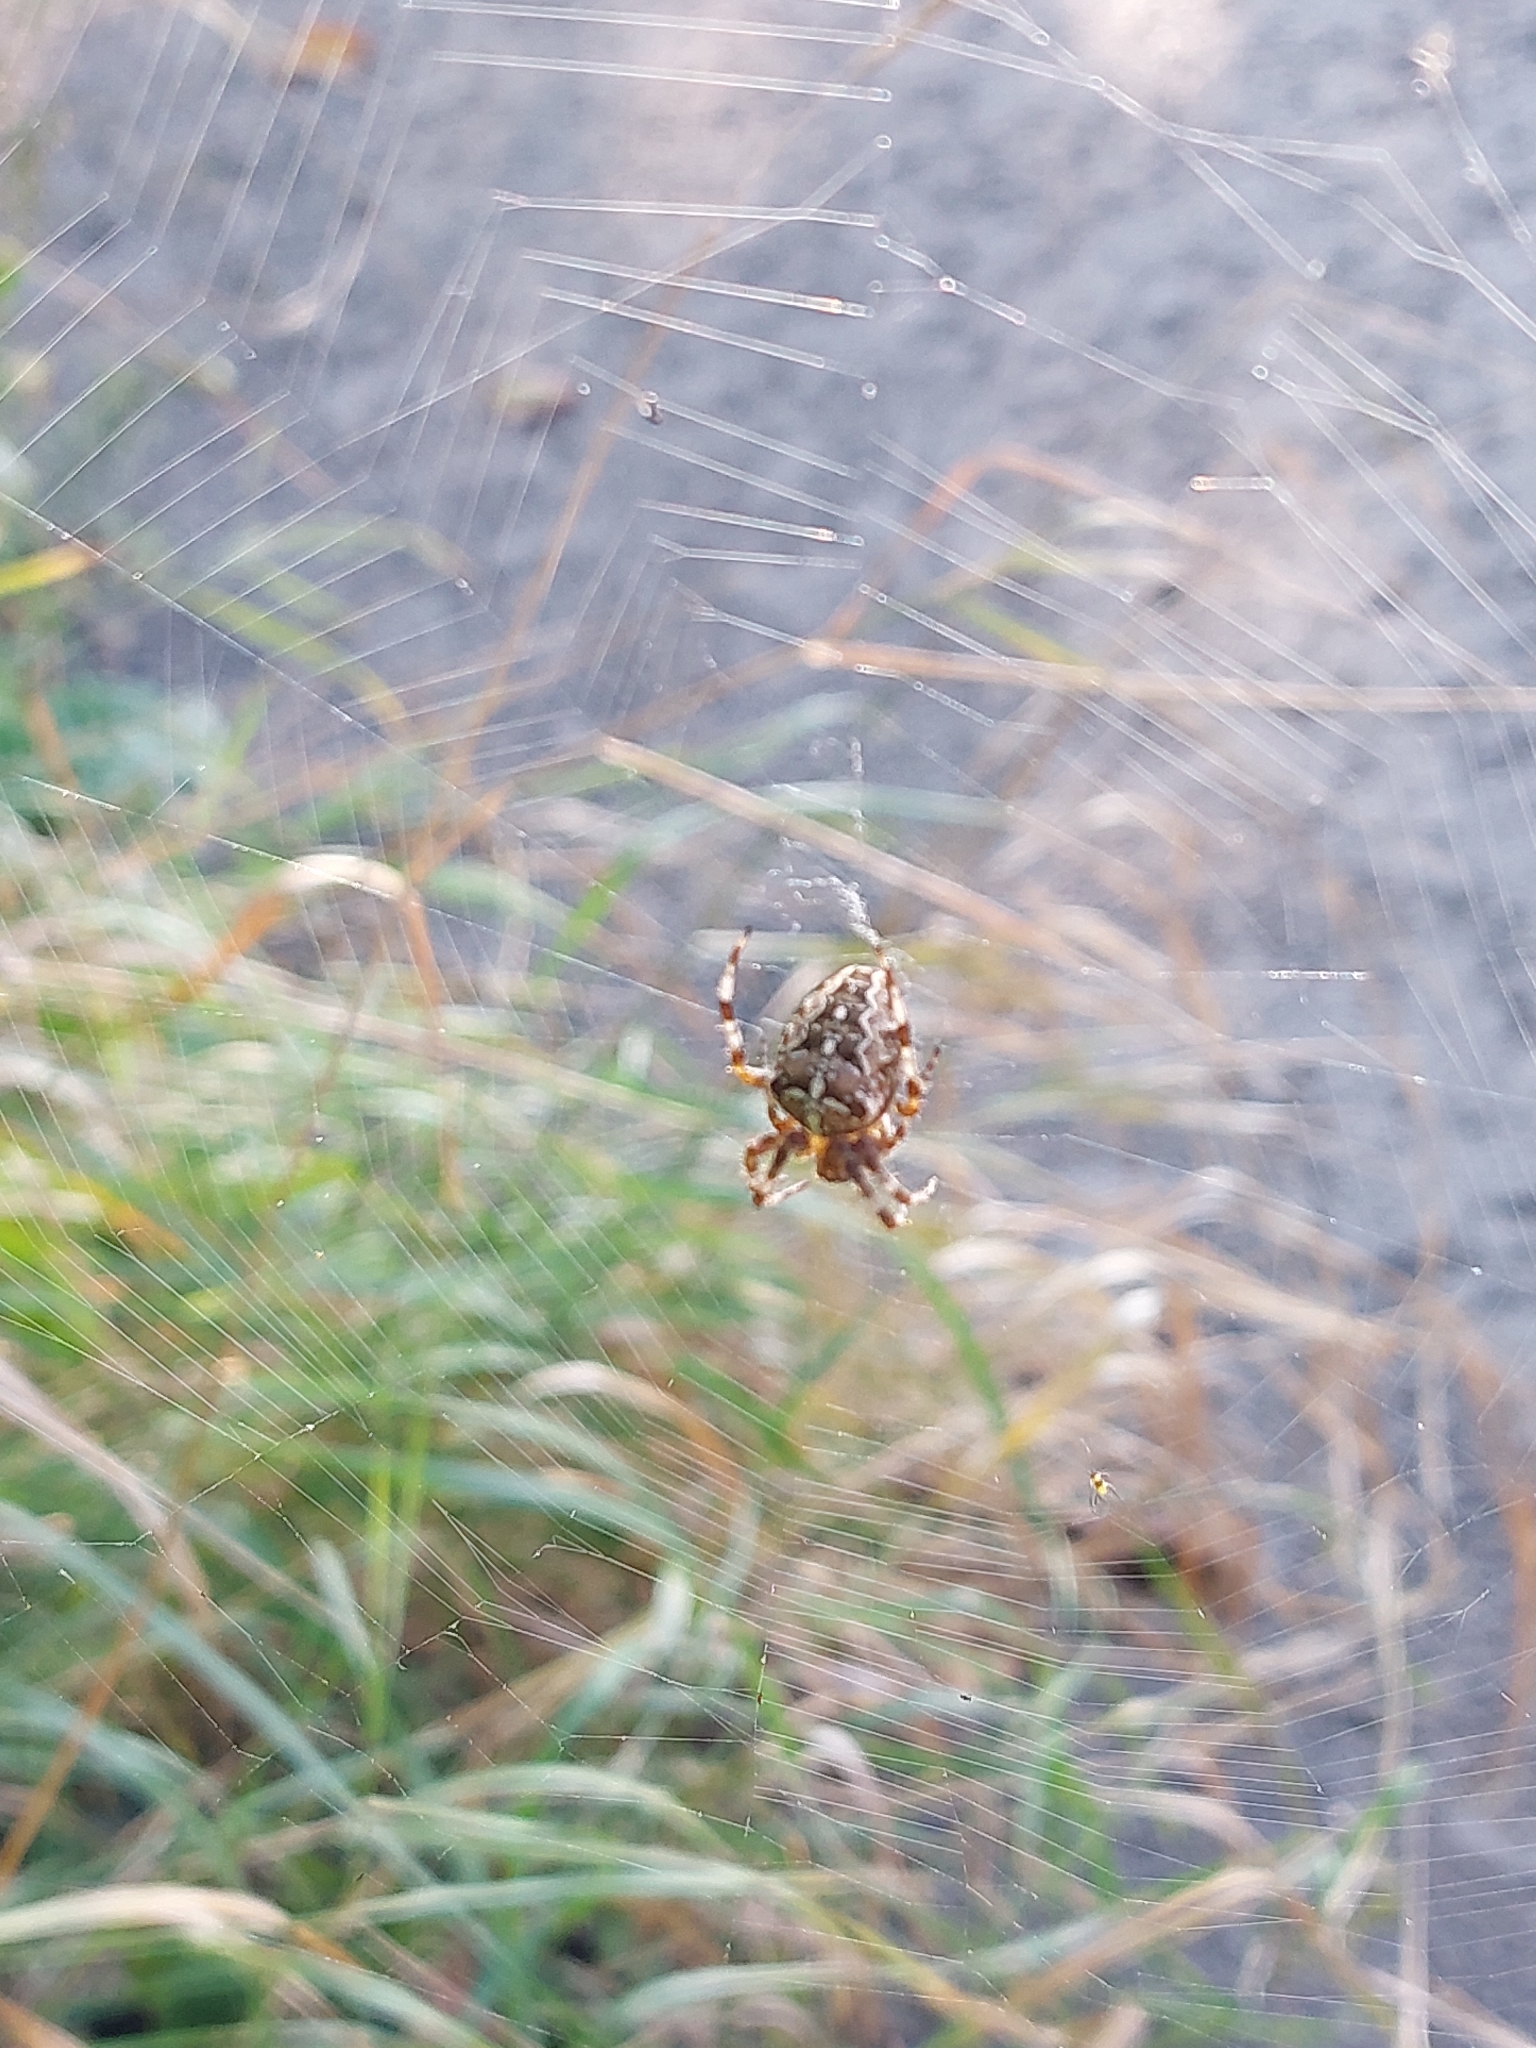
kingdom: Animalia
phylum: Arthropoda
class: Arachnida
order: Araneae
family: Araneidae
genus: Araneus
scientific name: Araneus diadematus
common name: Cross orbweaver
